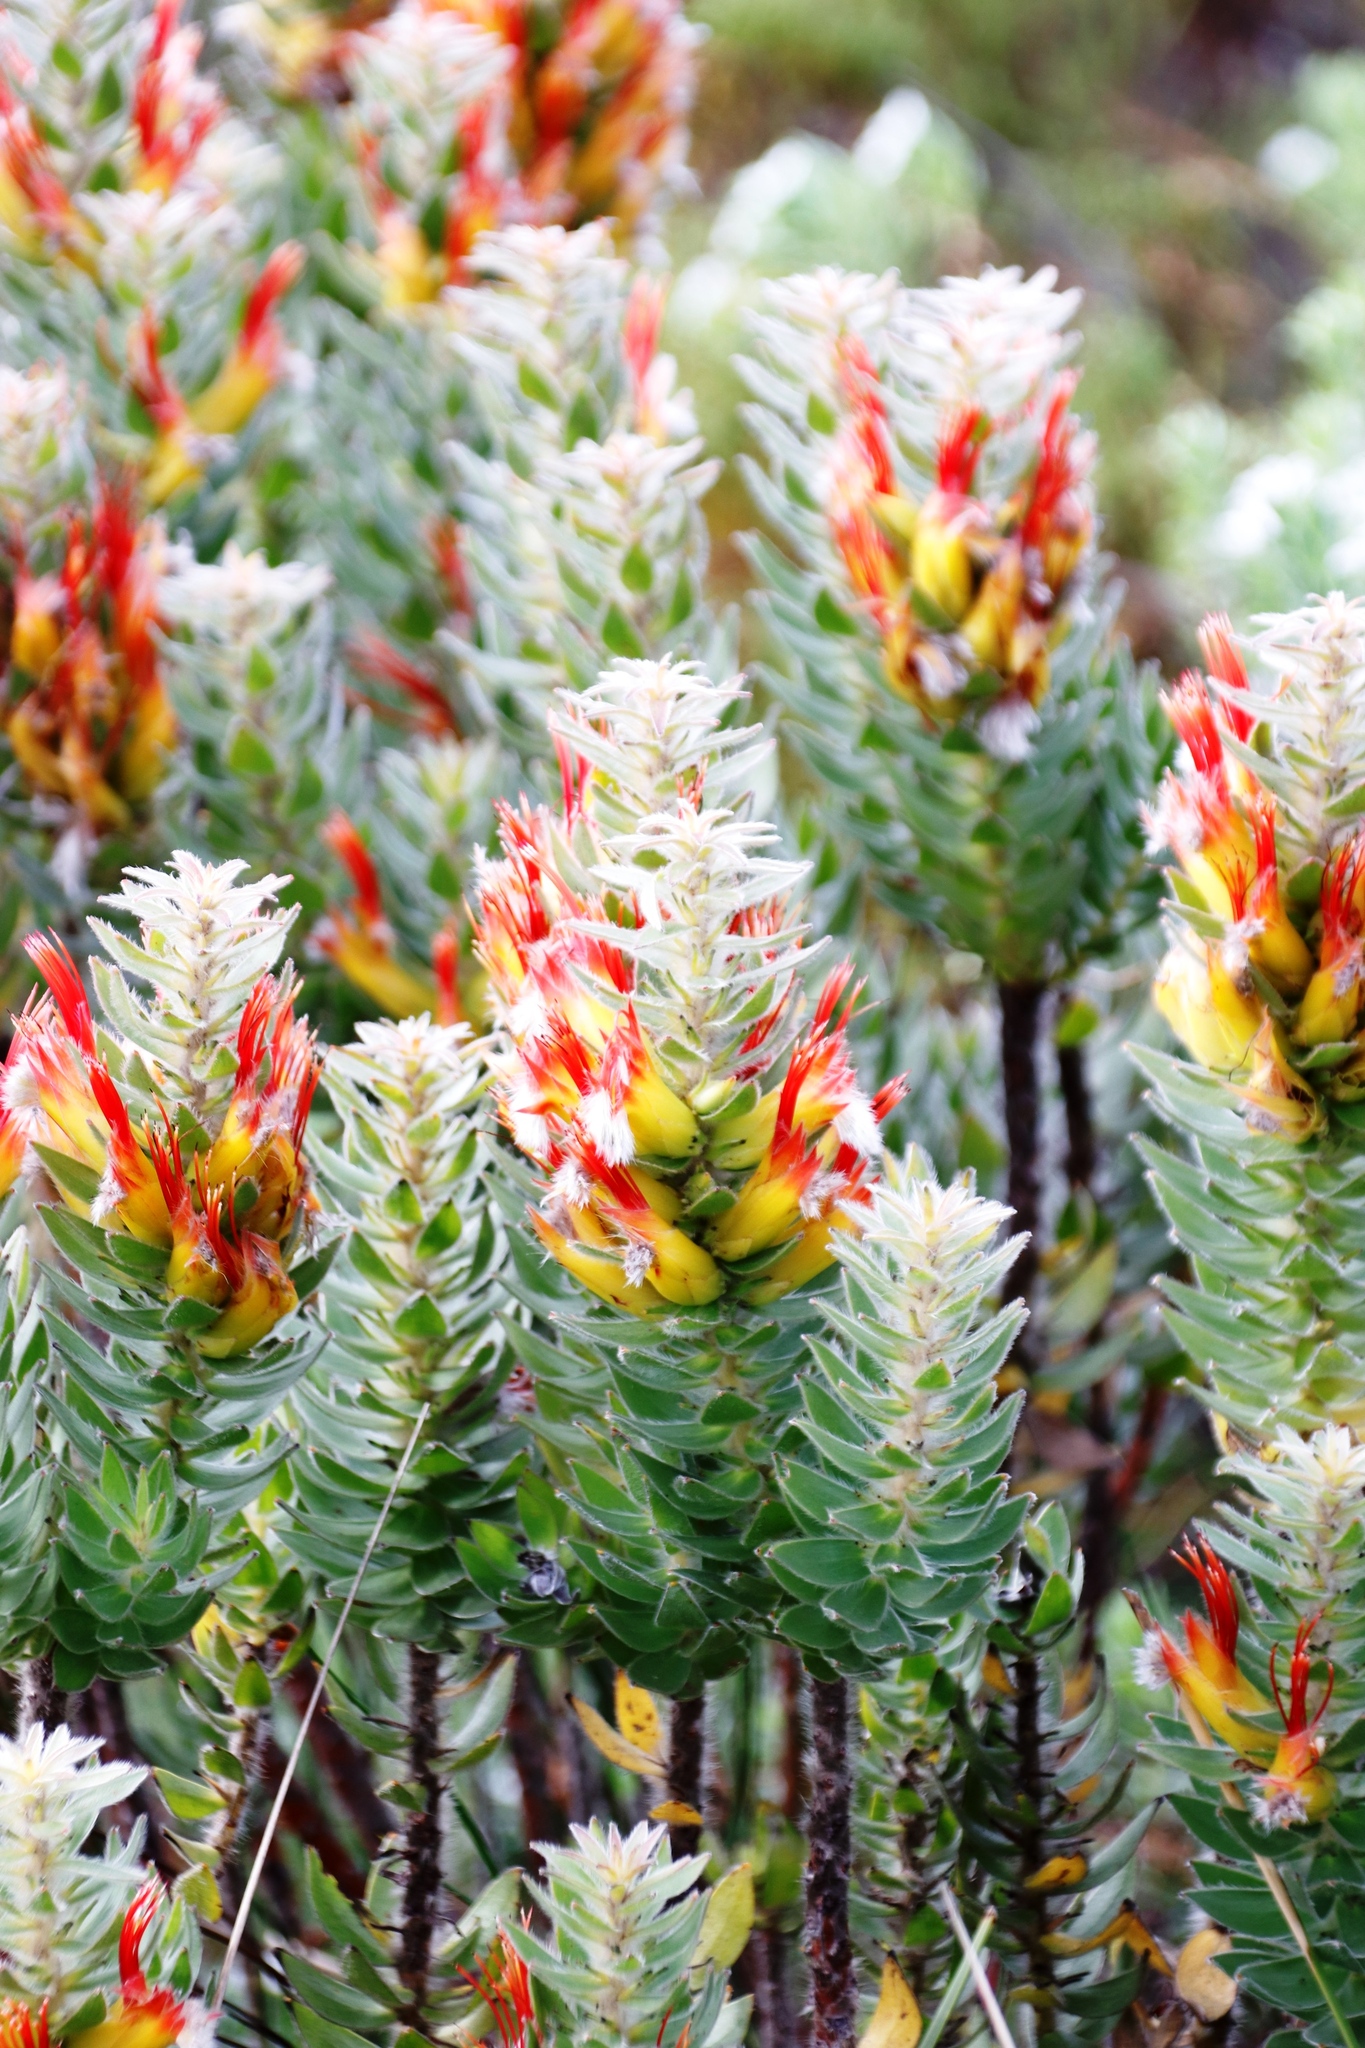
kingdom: Plantae
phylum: Tracheophyta
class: Magnoliopsida
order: Proteales
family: Proteaceae
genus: Mimetes
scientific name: Mimetes hirtus
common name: Marsh pagoda
